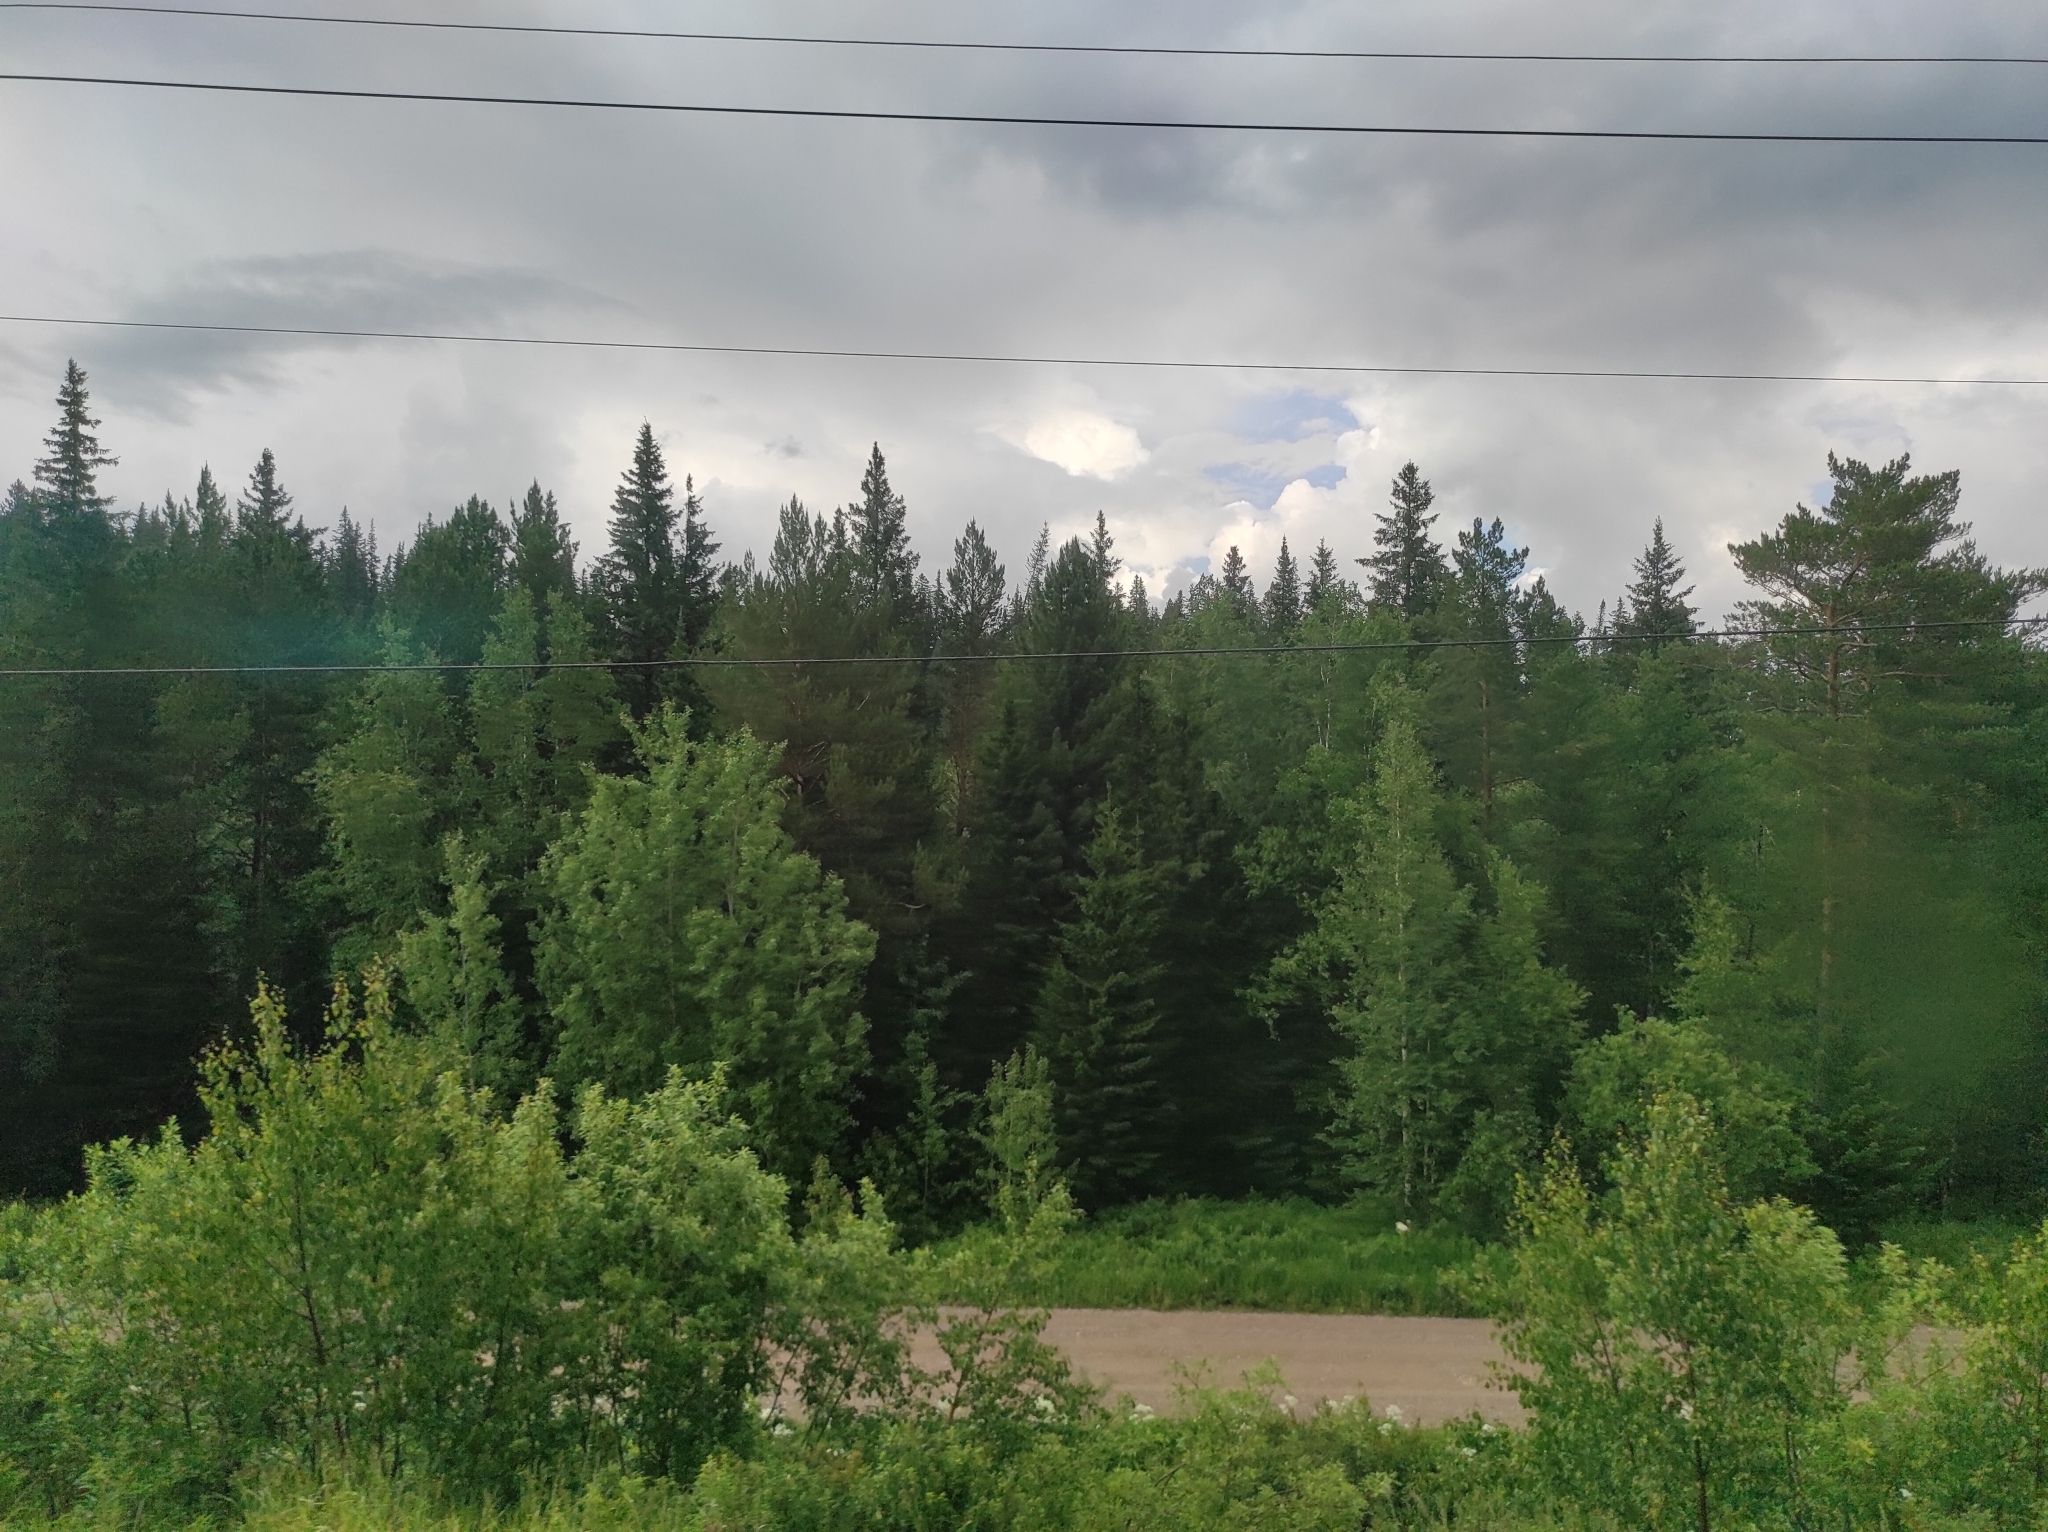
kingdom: Plantae
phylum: Tracheophyta
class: Pinopsida
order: Pinales
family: Pinaceae
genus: Pinus
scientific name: Pinus sylvestris
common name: Scots pine
